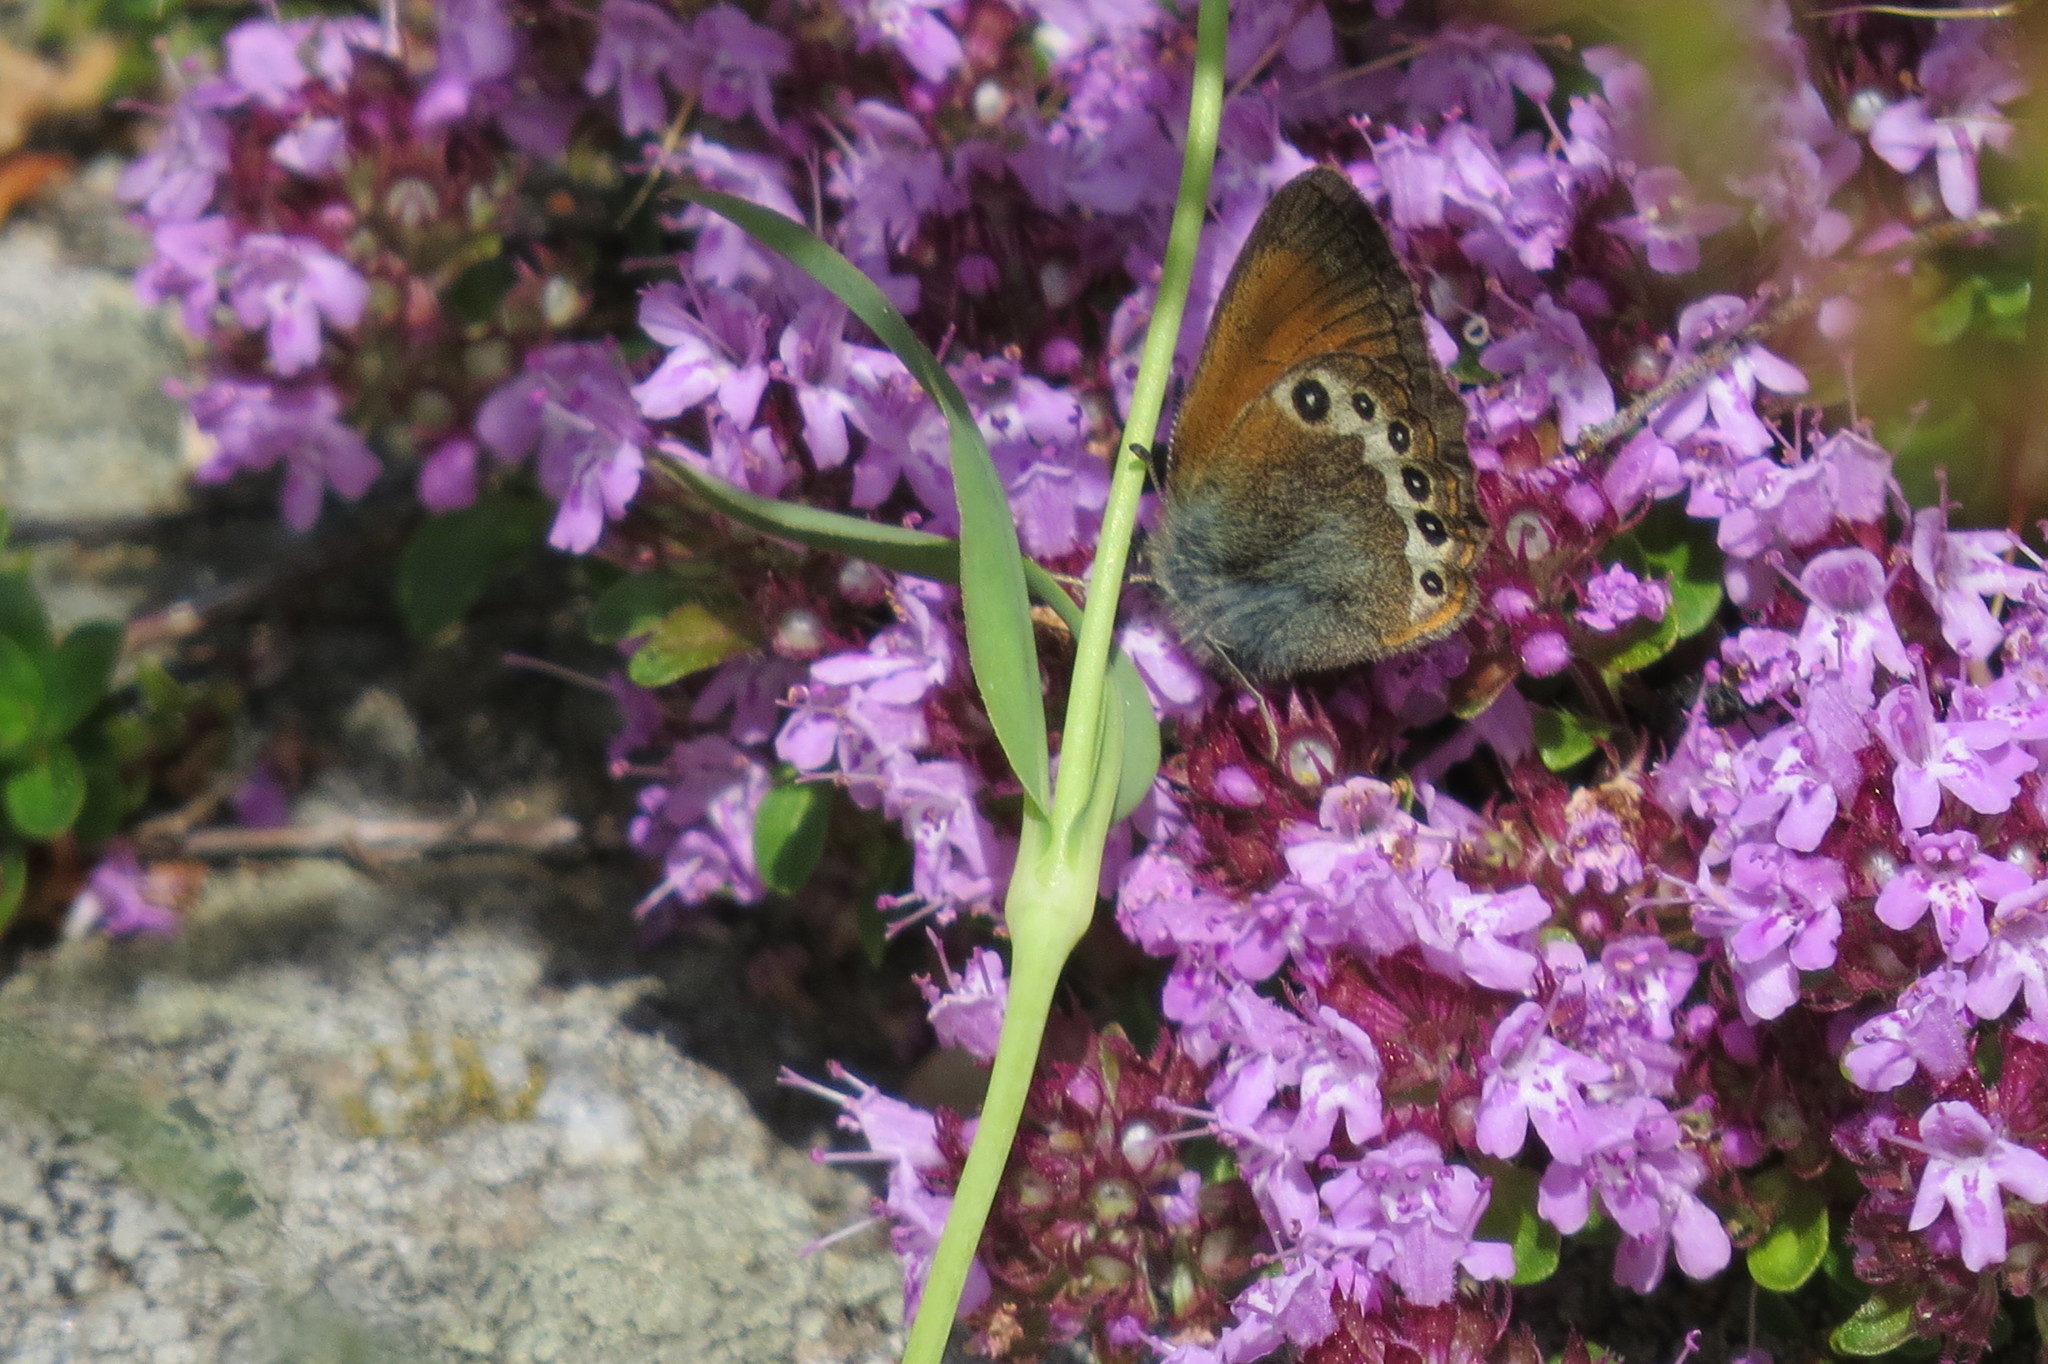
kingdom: Animalia
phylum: Arthropoda
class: Insecta
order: Lepidoptera
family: Nymphalidae
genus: Coenonympha
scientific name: Coenonympha
